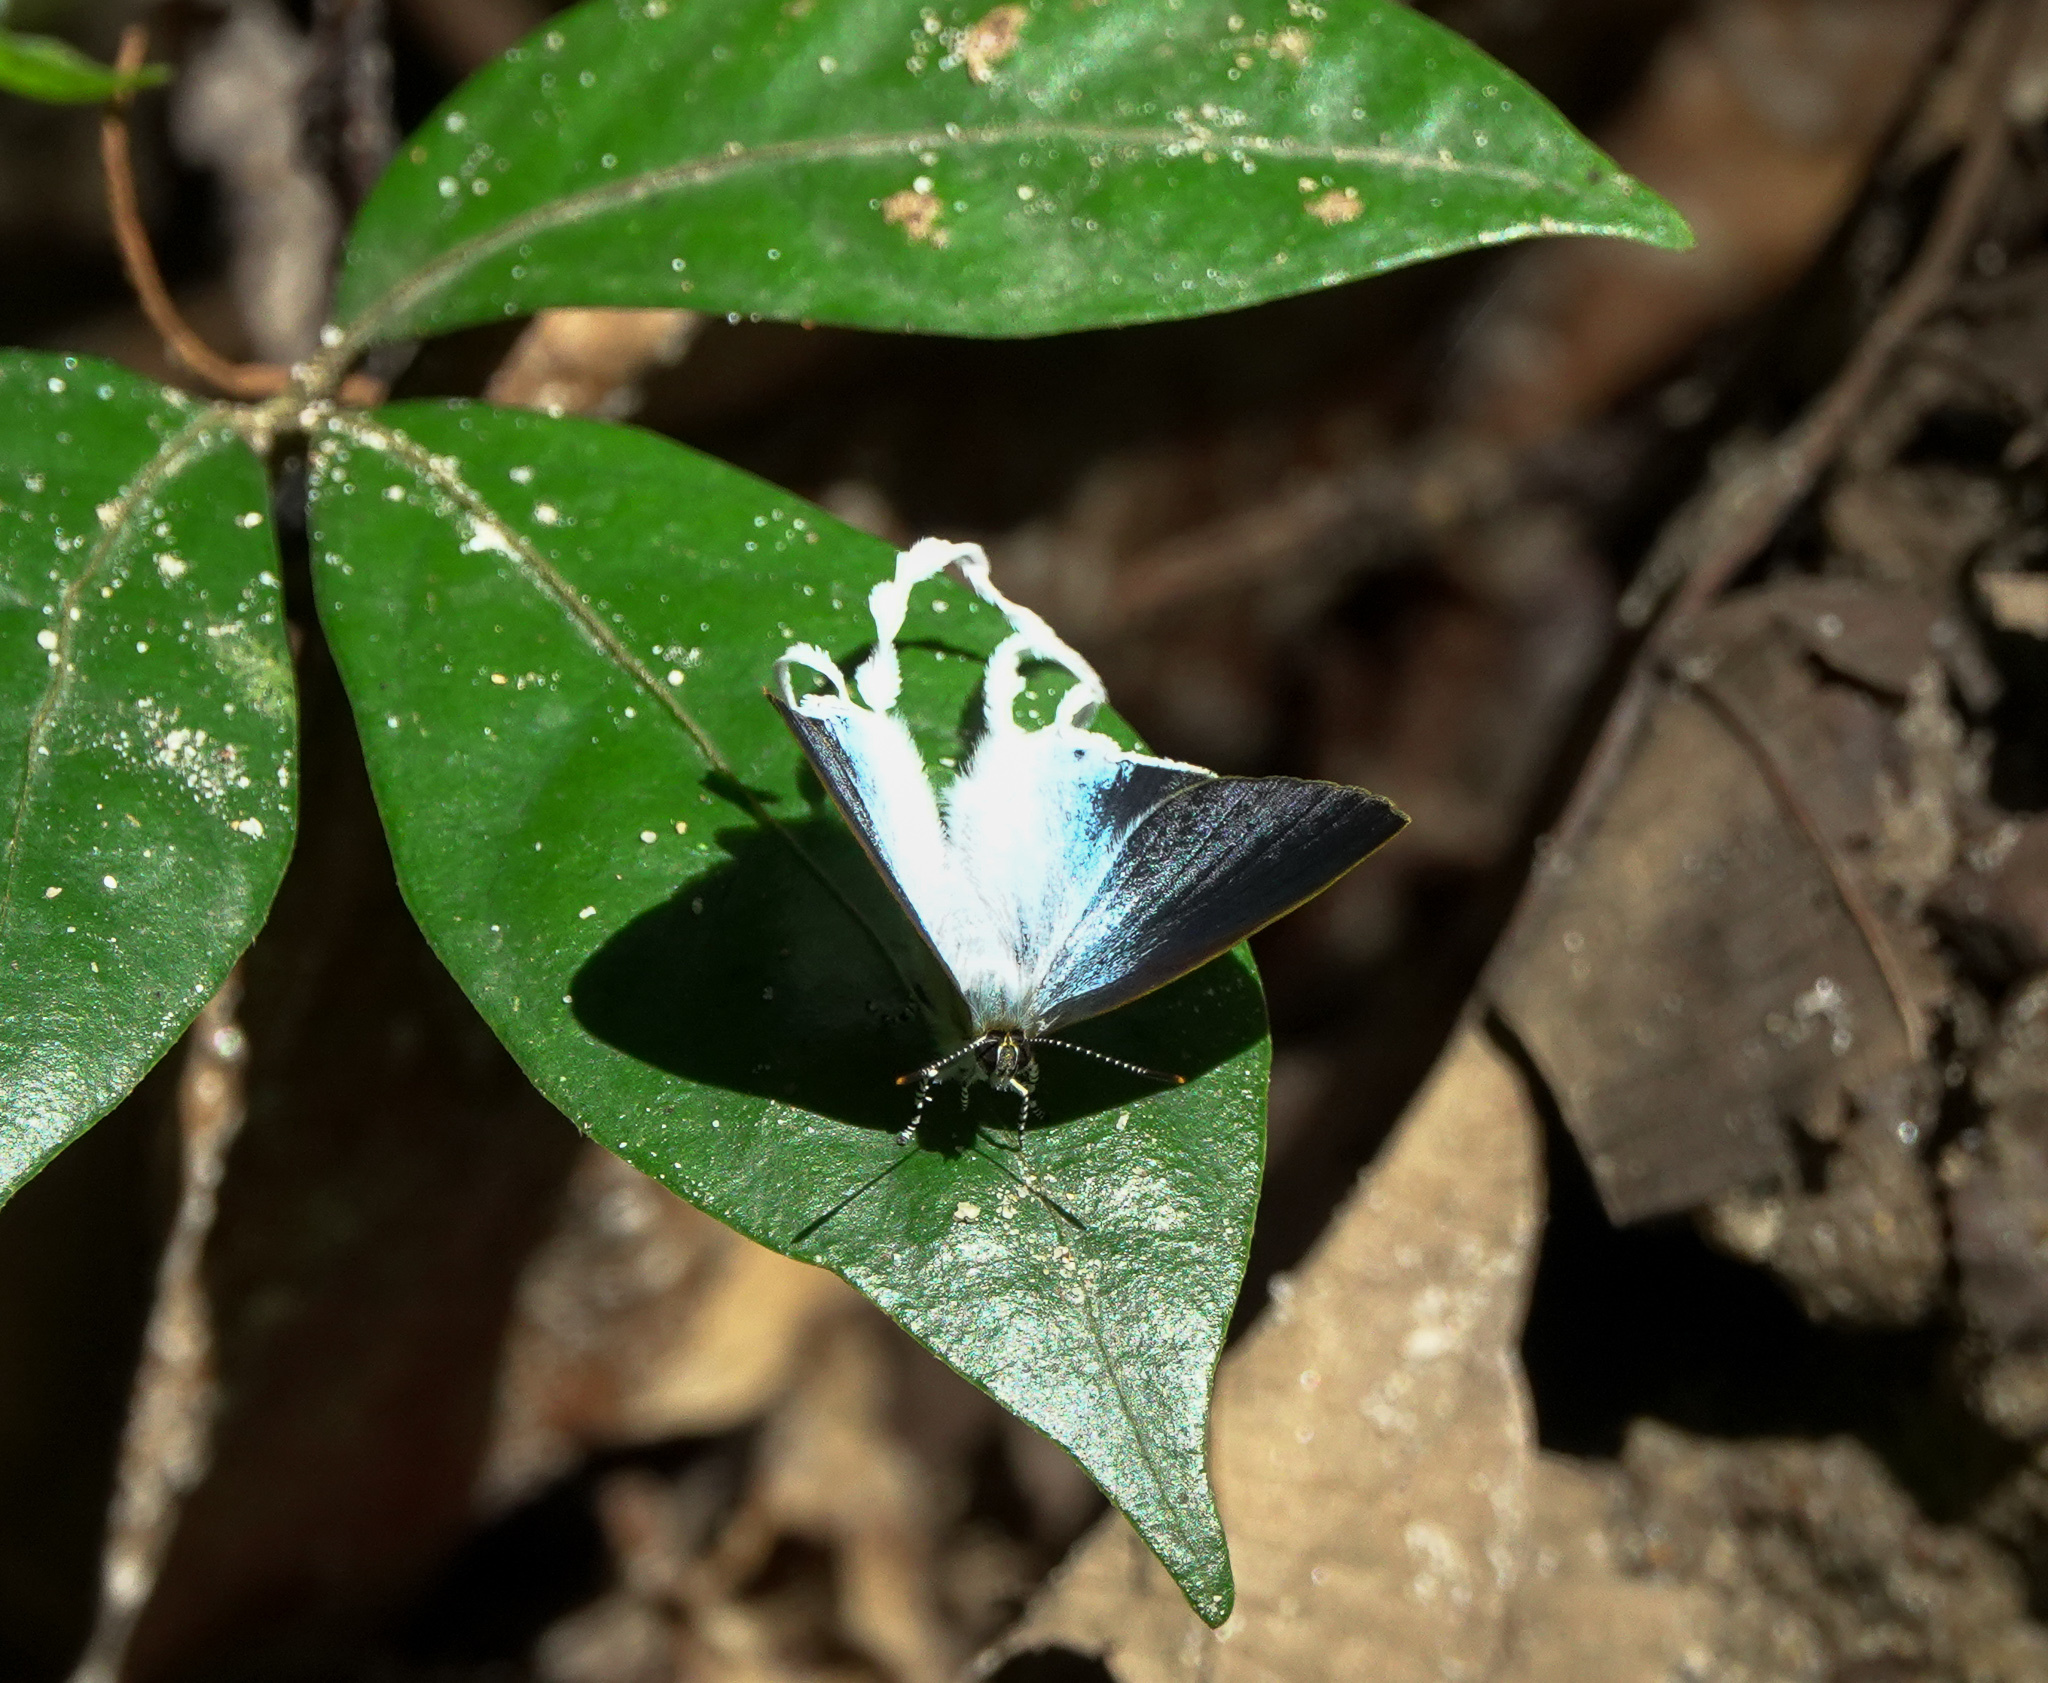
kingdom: Animalia
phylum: Arthropoda
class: Insecta
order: Lepidoptera
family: Lycaenidae
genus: Zeltus
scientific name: Zeltus amasa
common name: Fluffy tit
